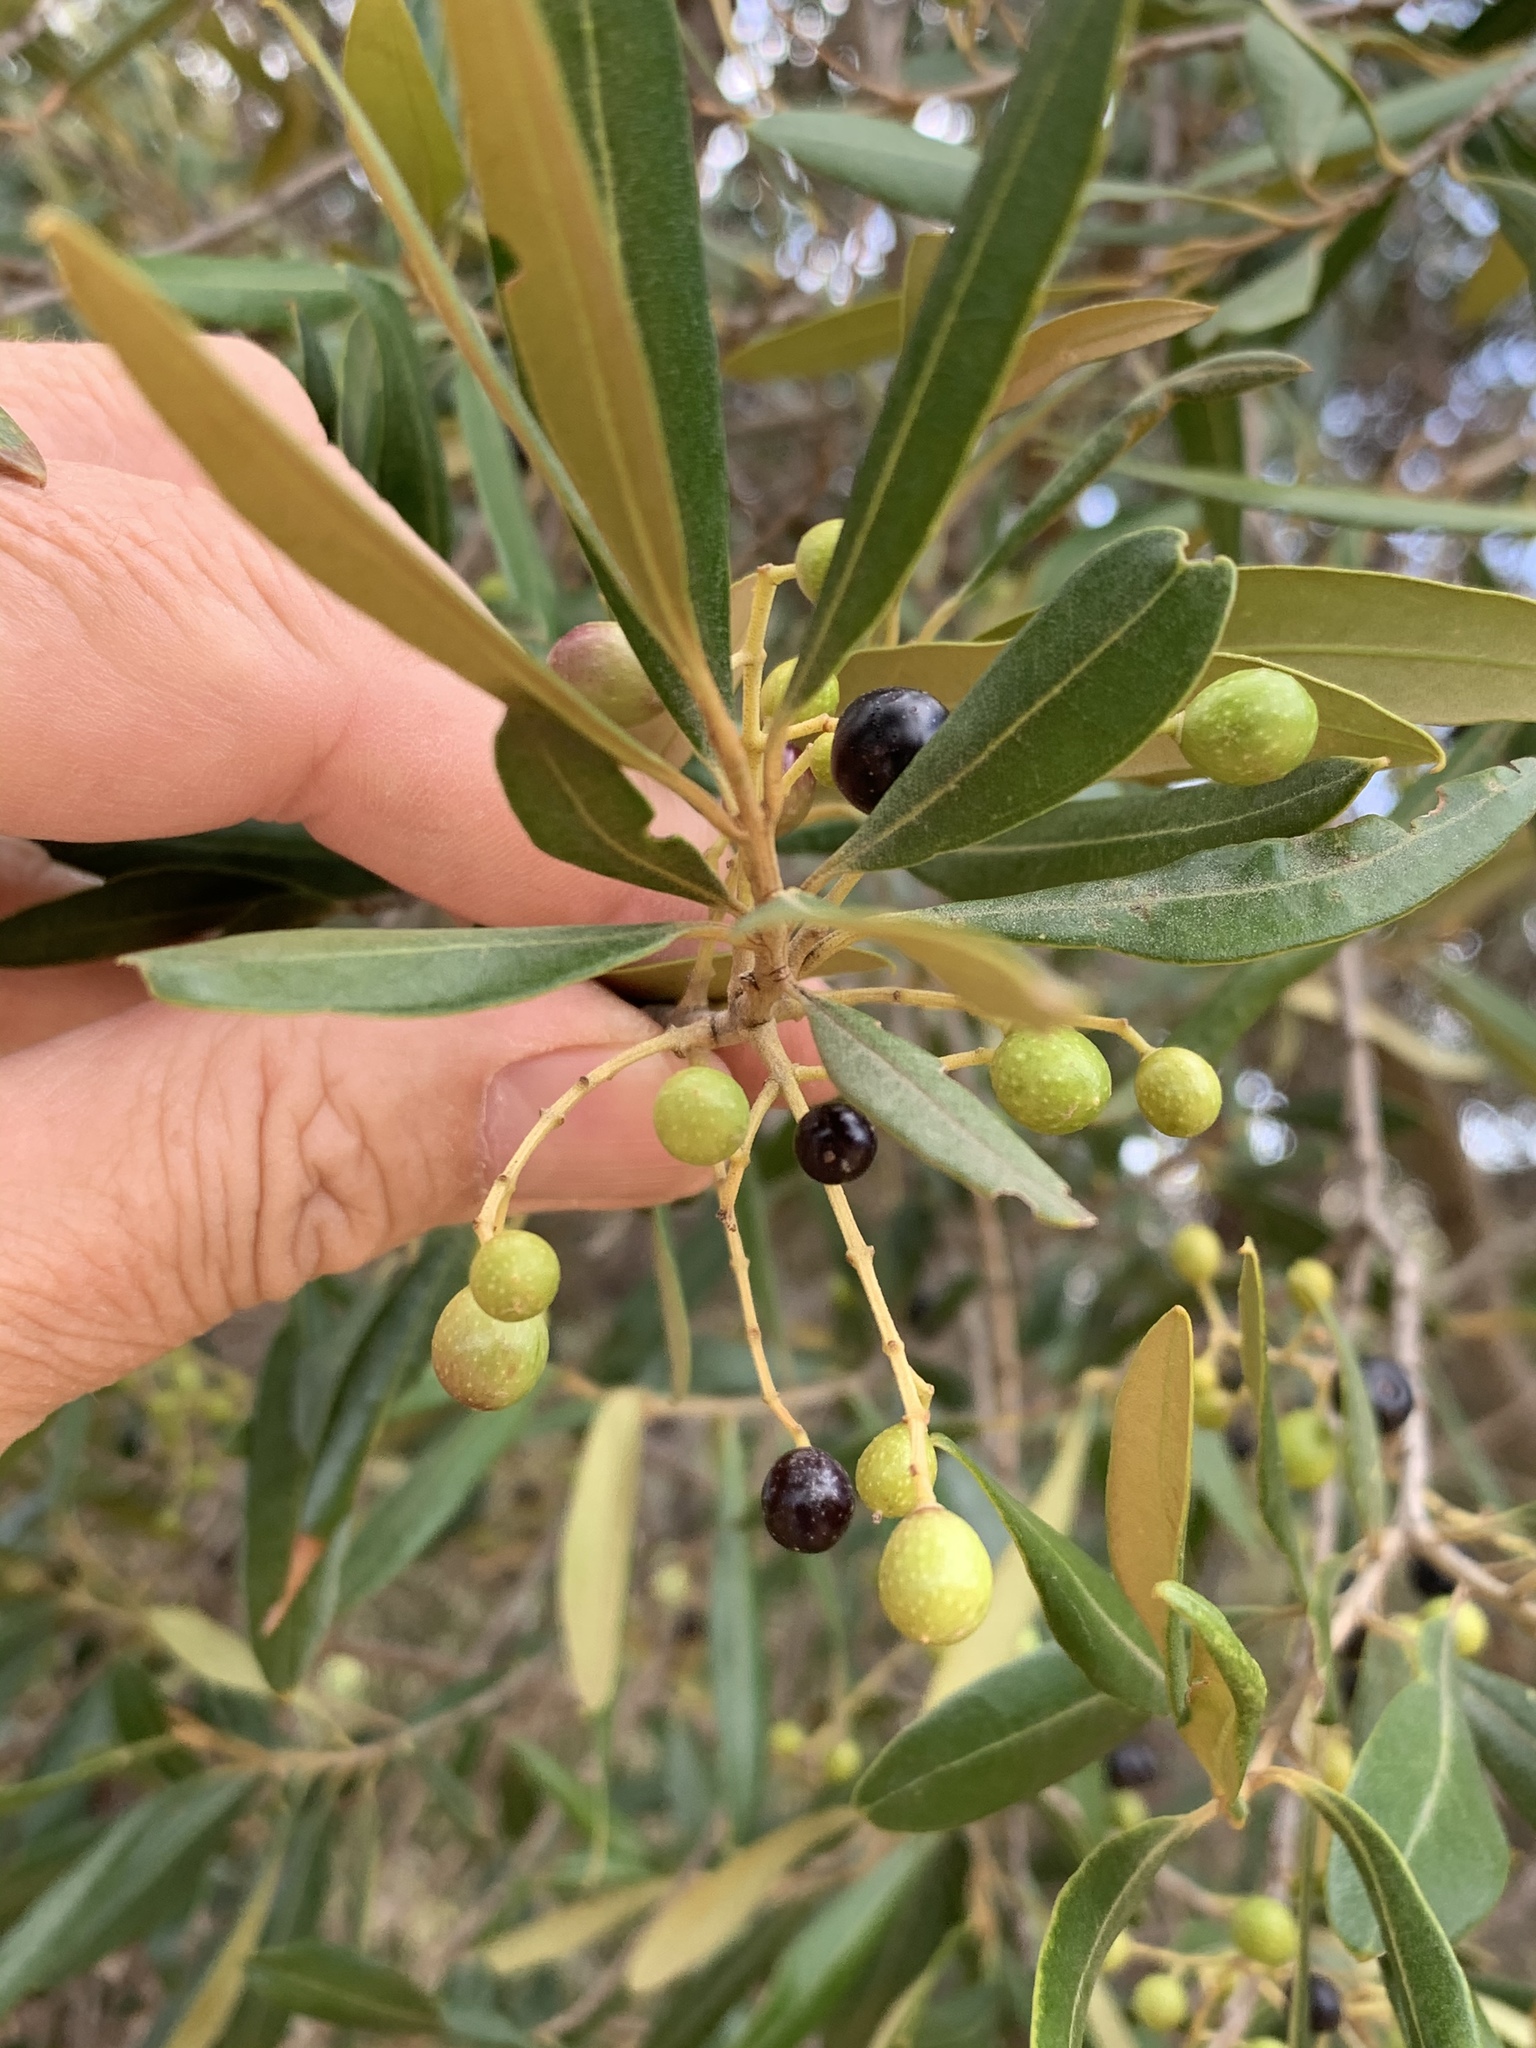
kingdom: Plantae
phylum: Tracheophyta
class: Magnoliopsida
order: Lamiales
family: Oleaceae
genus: Olea
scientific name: Olea europaea
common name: Olive
